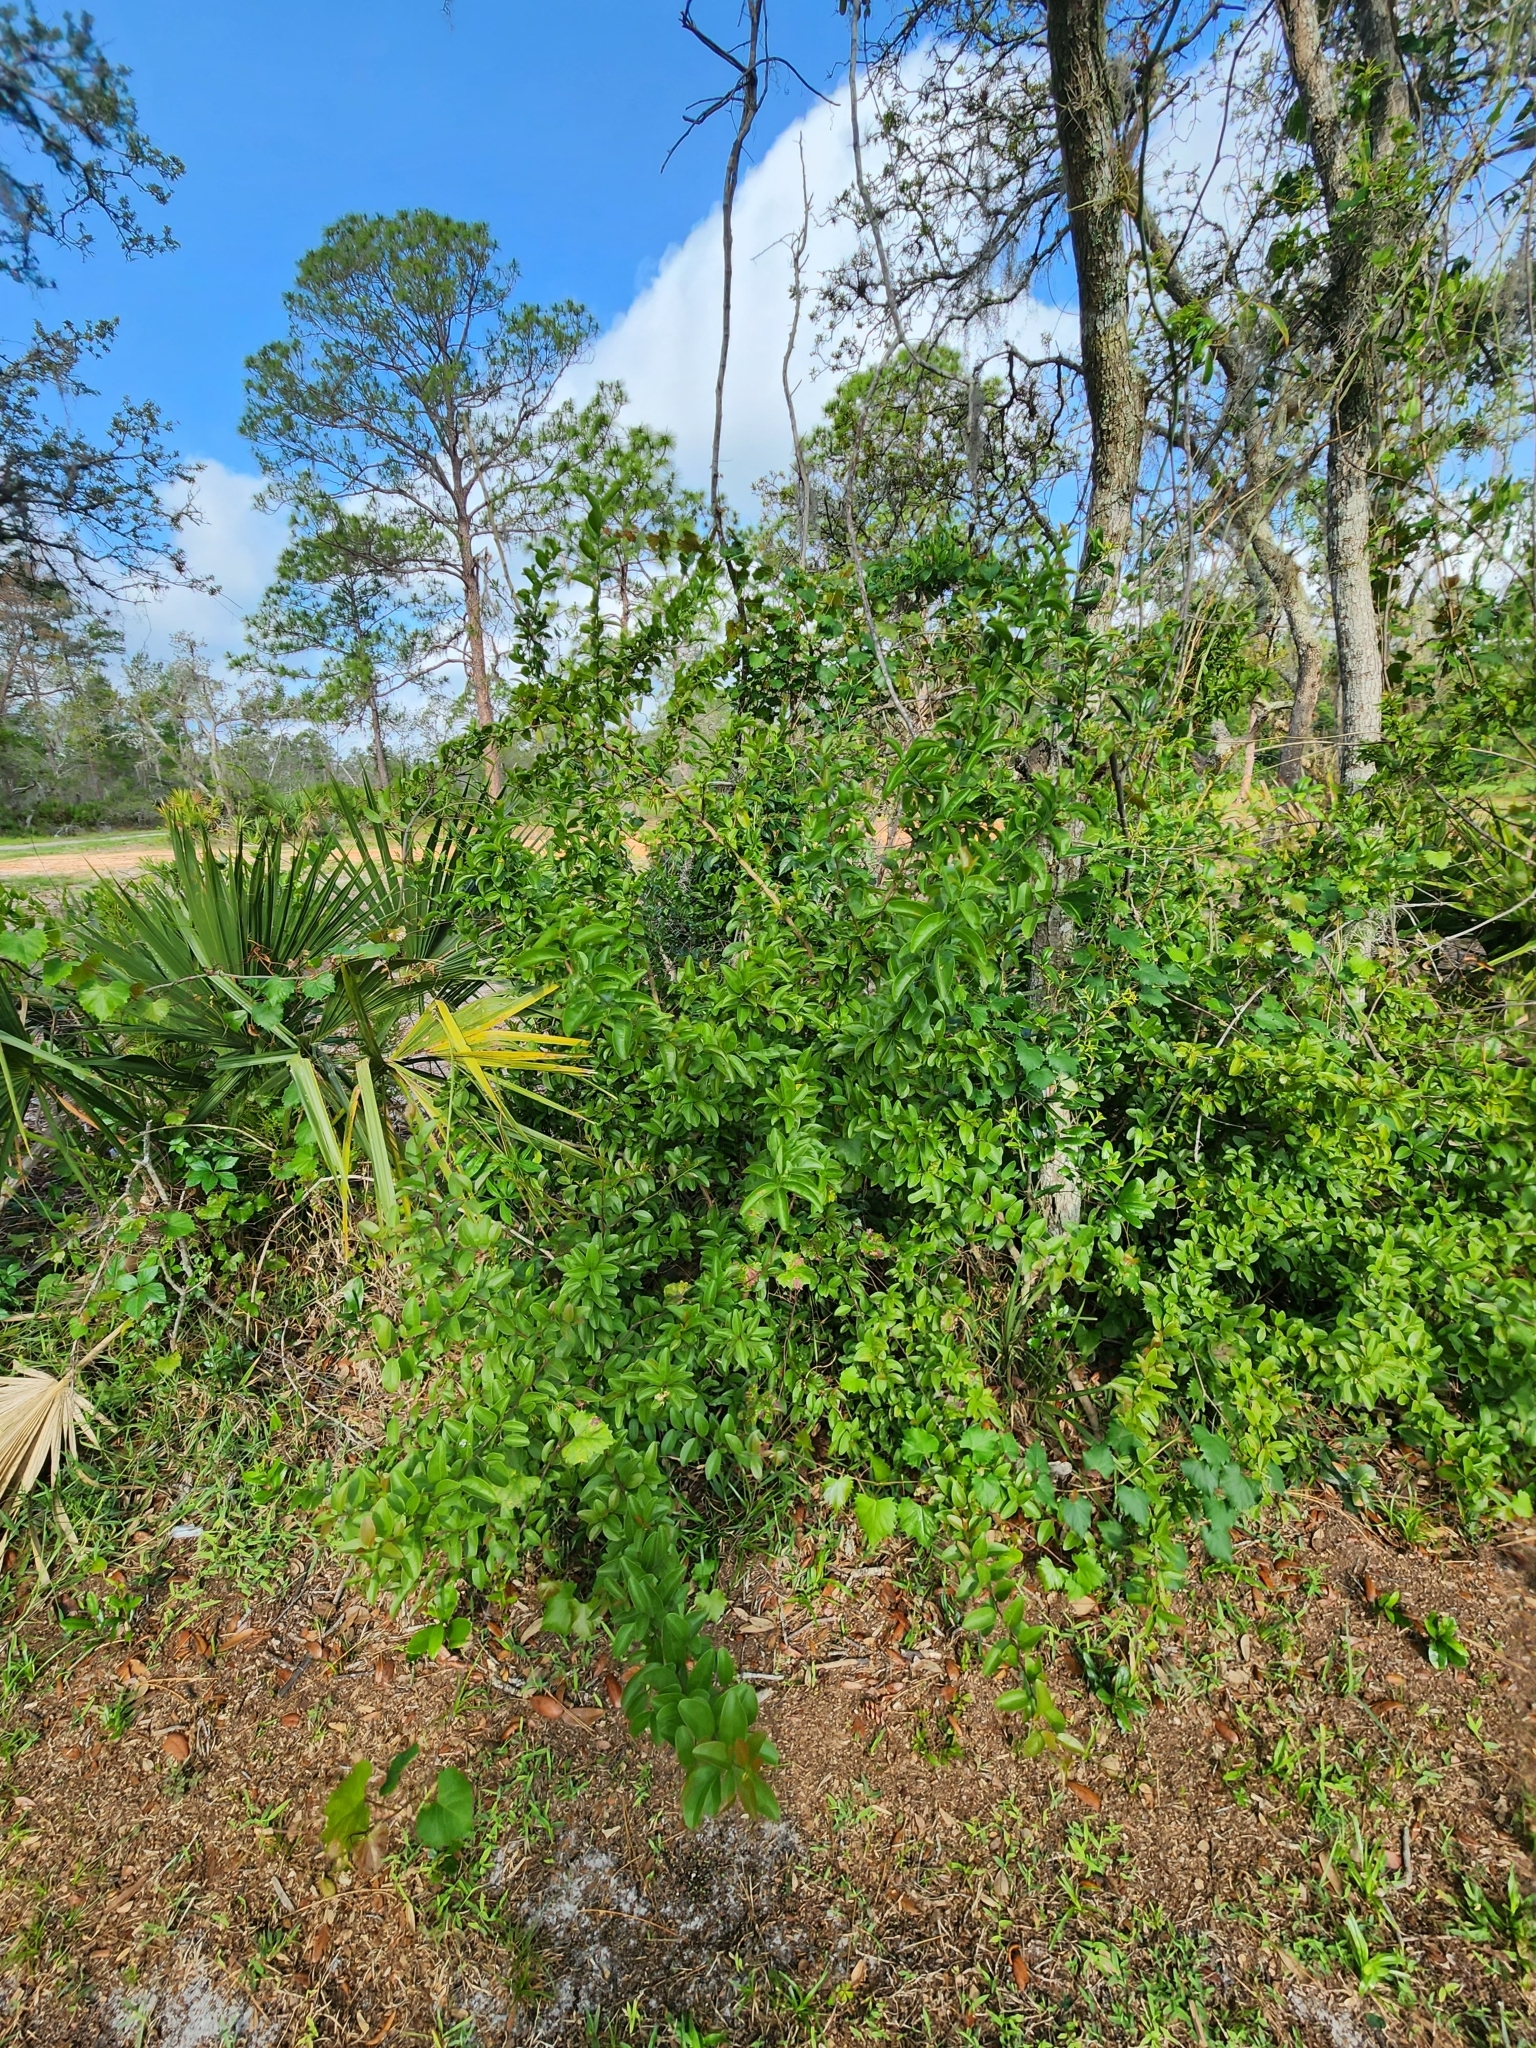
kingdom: Plantae
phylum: Tracheophyta
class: Magnoliopsida
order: Santalales
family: Ximeniaceae
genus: Ximenia
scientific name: Ximenia americana
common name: Tallowwood
